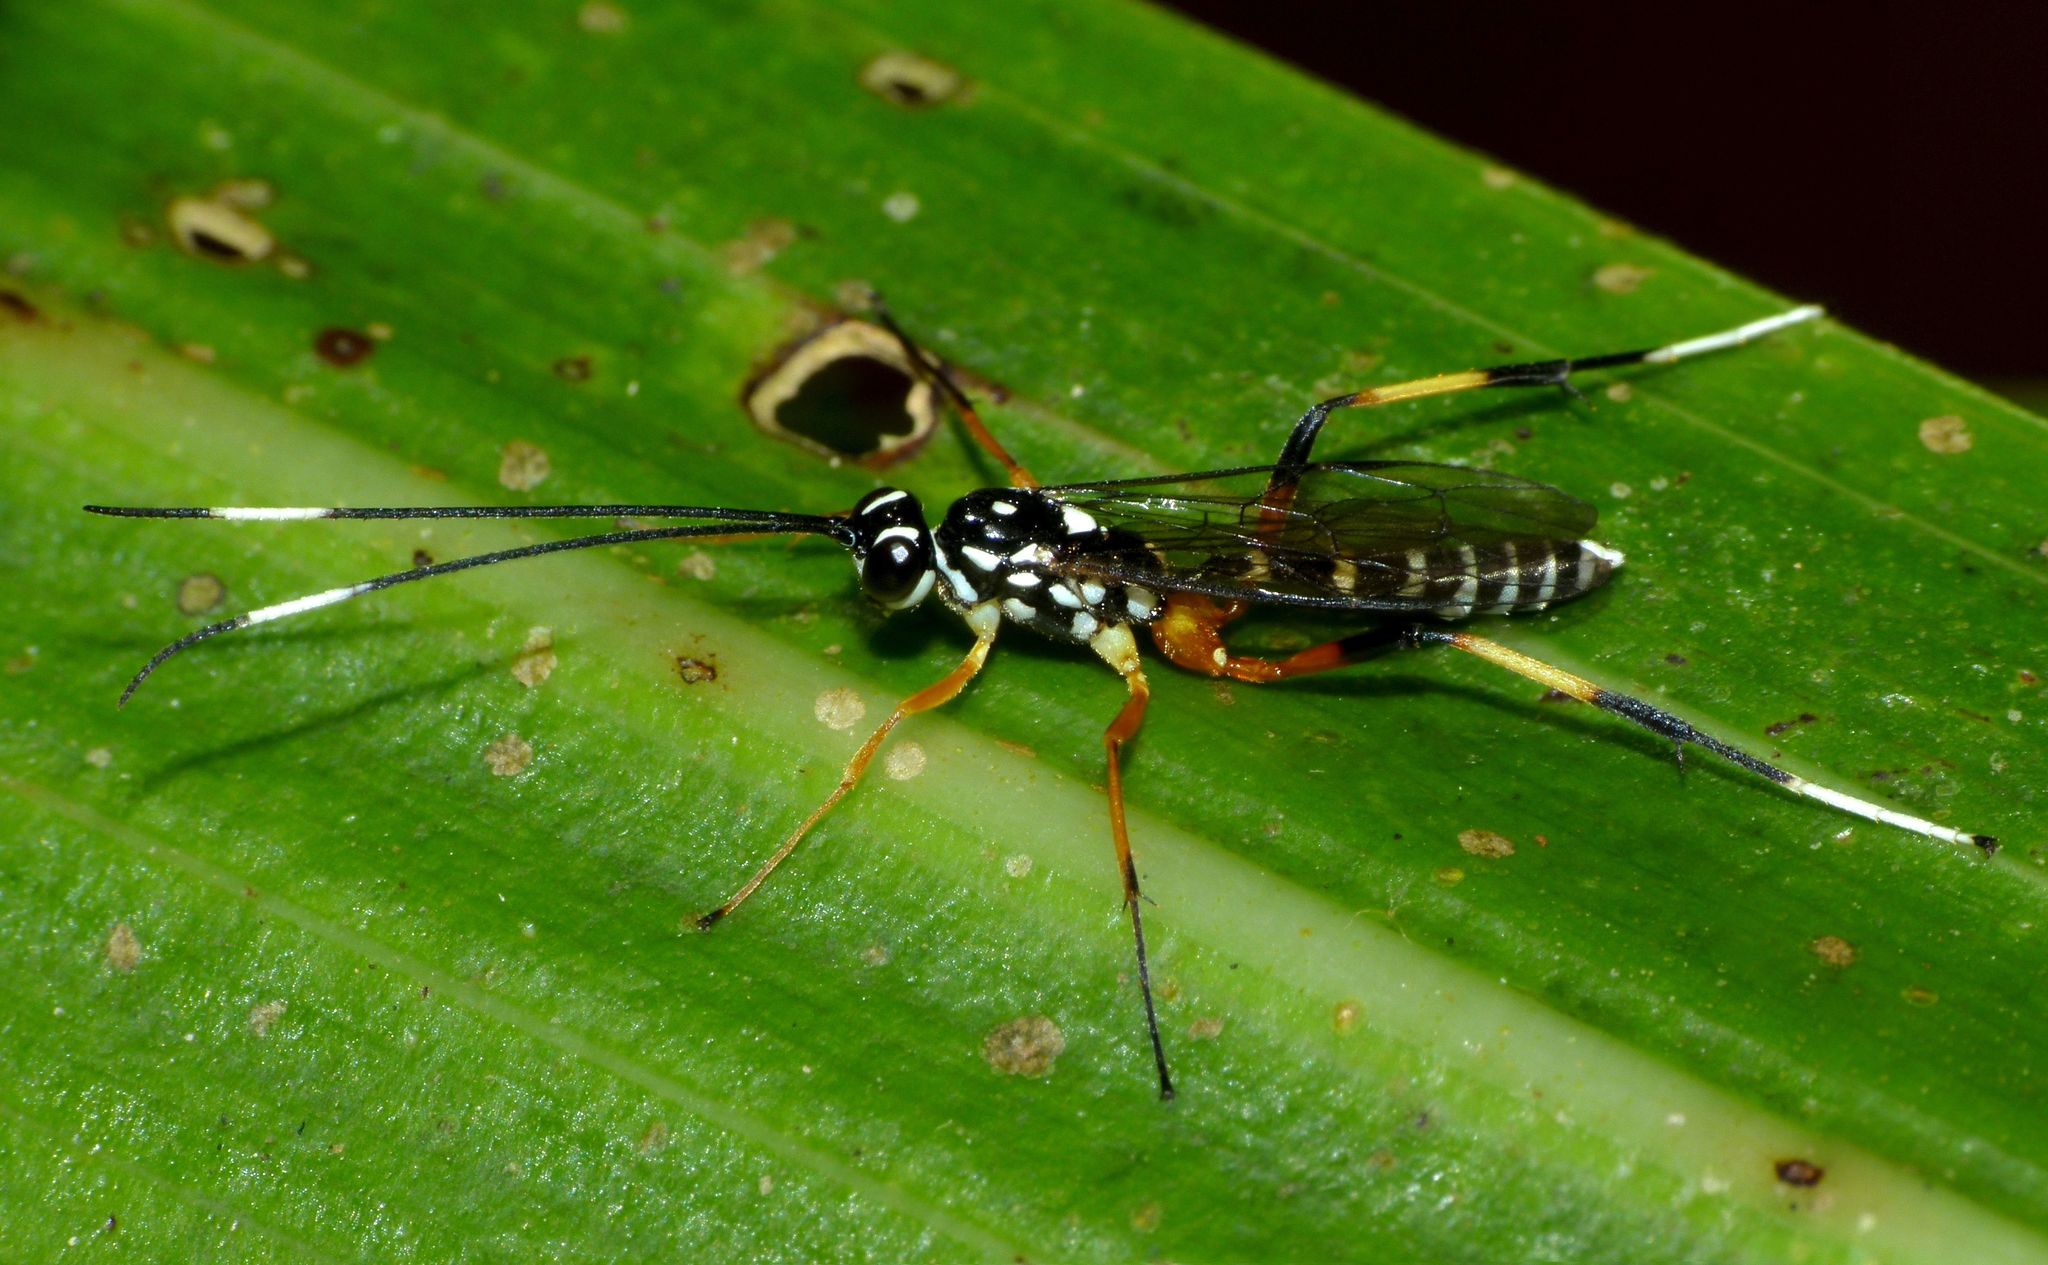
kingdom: Animalia
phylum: Arthropoda
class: Insecta
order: Hymenoptera
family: Ichneumonidae
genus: Xanthocryptus
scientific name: Xanthocryptus novozealandicus
